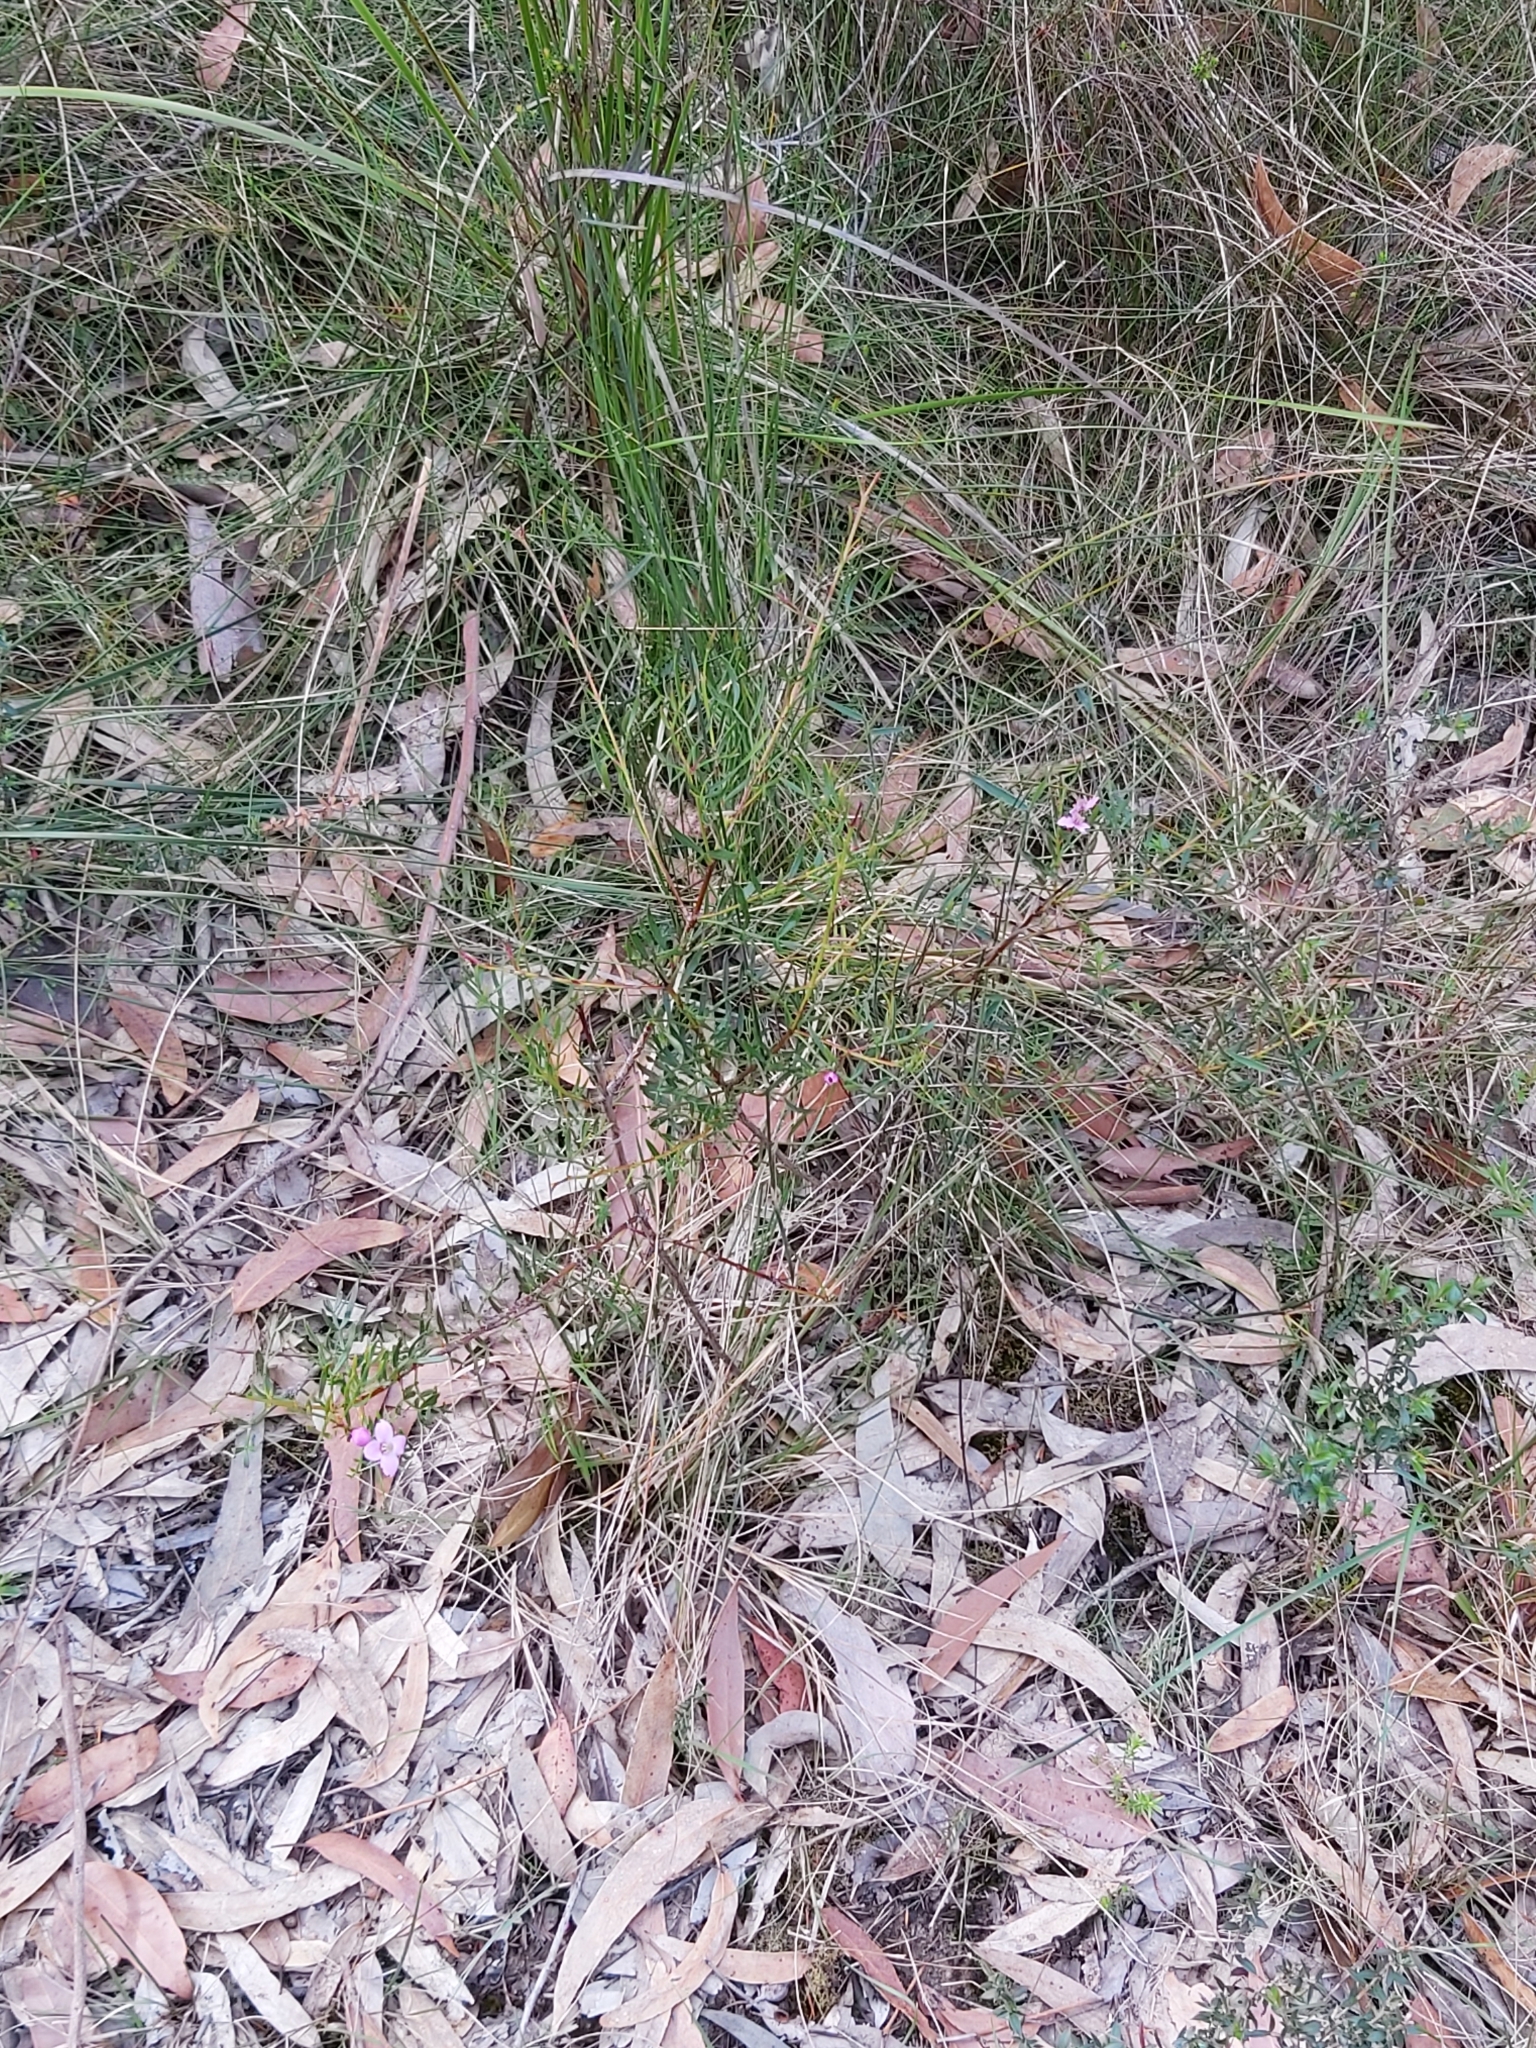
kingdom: Plantae
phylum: Tracheophyta
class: Magnoliopsida
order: Sapindales
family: Rutaceae
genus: Boronia
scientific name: Boronia pinnata
